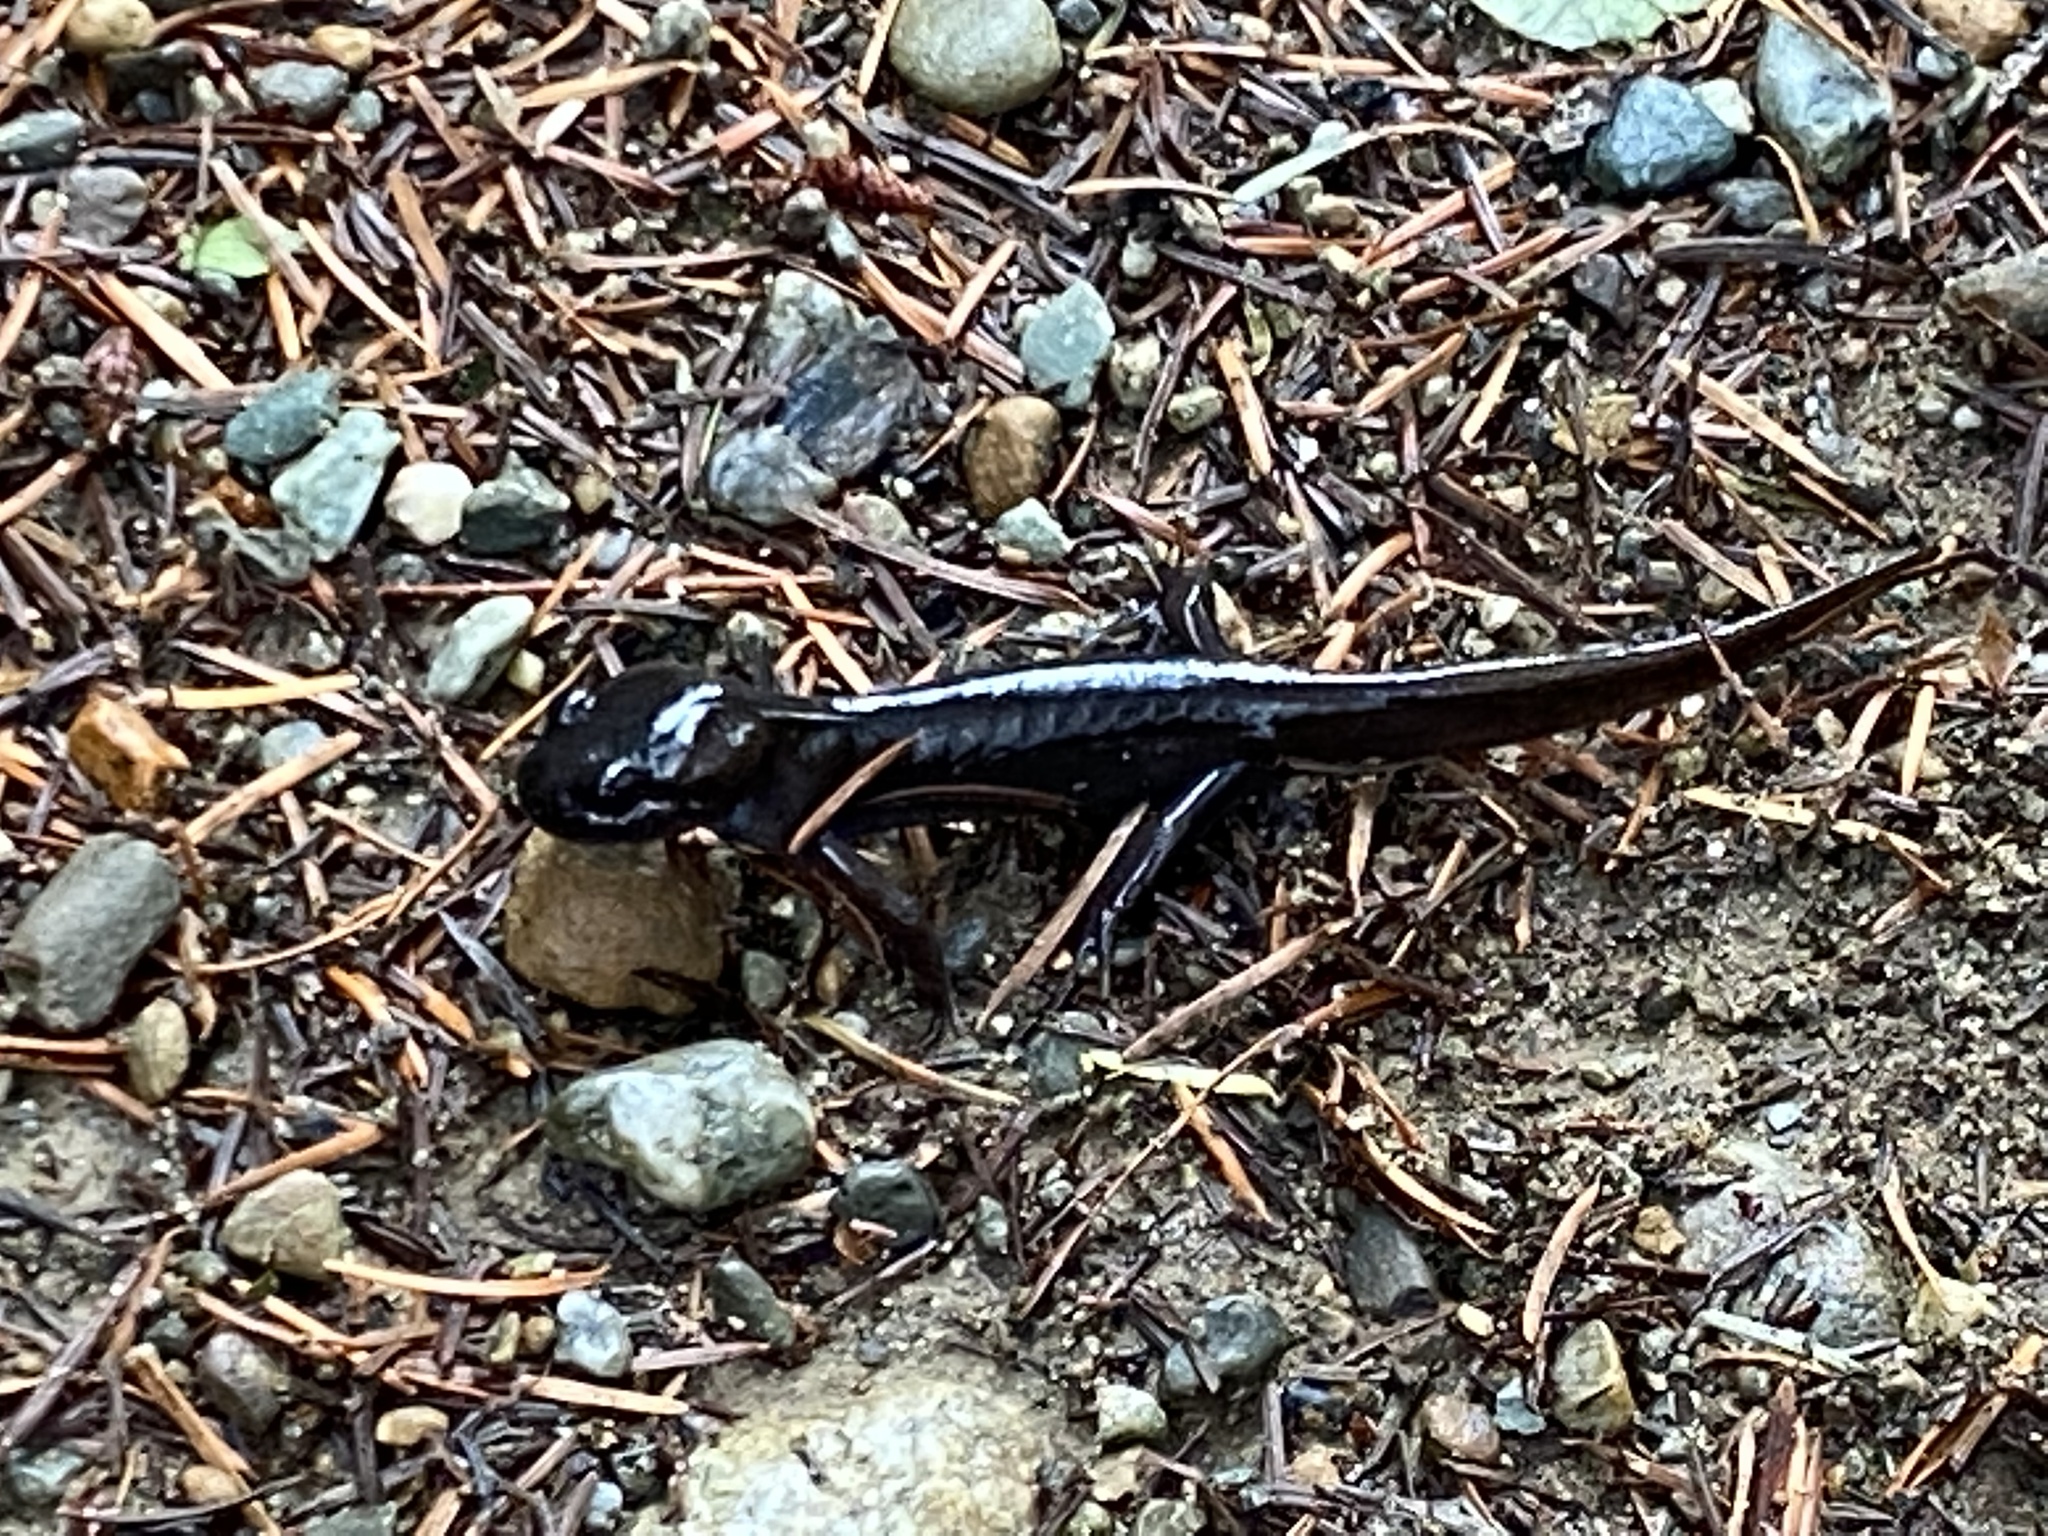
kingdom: Animalia
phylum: Chordata
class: Amphibia
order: Caudata
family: Ambystomatidae
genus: Ambystoma
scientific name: Ambystoma gracile
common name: Northwestern salamander
